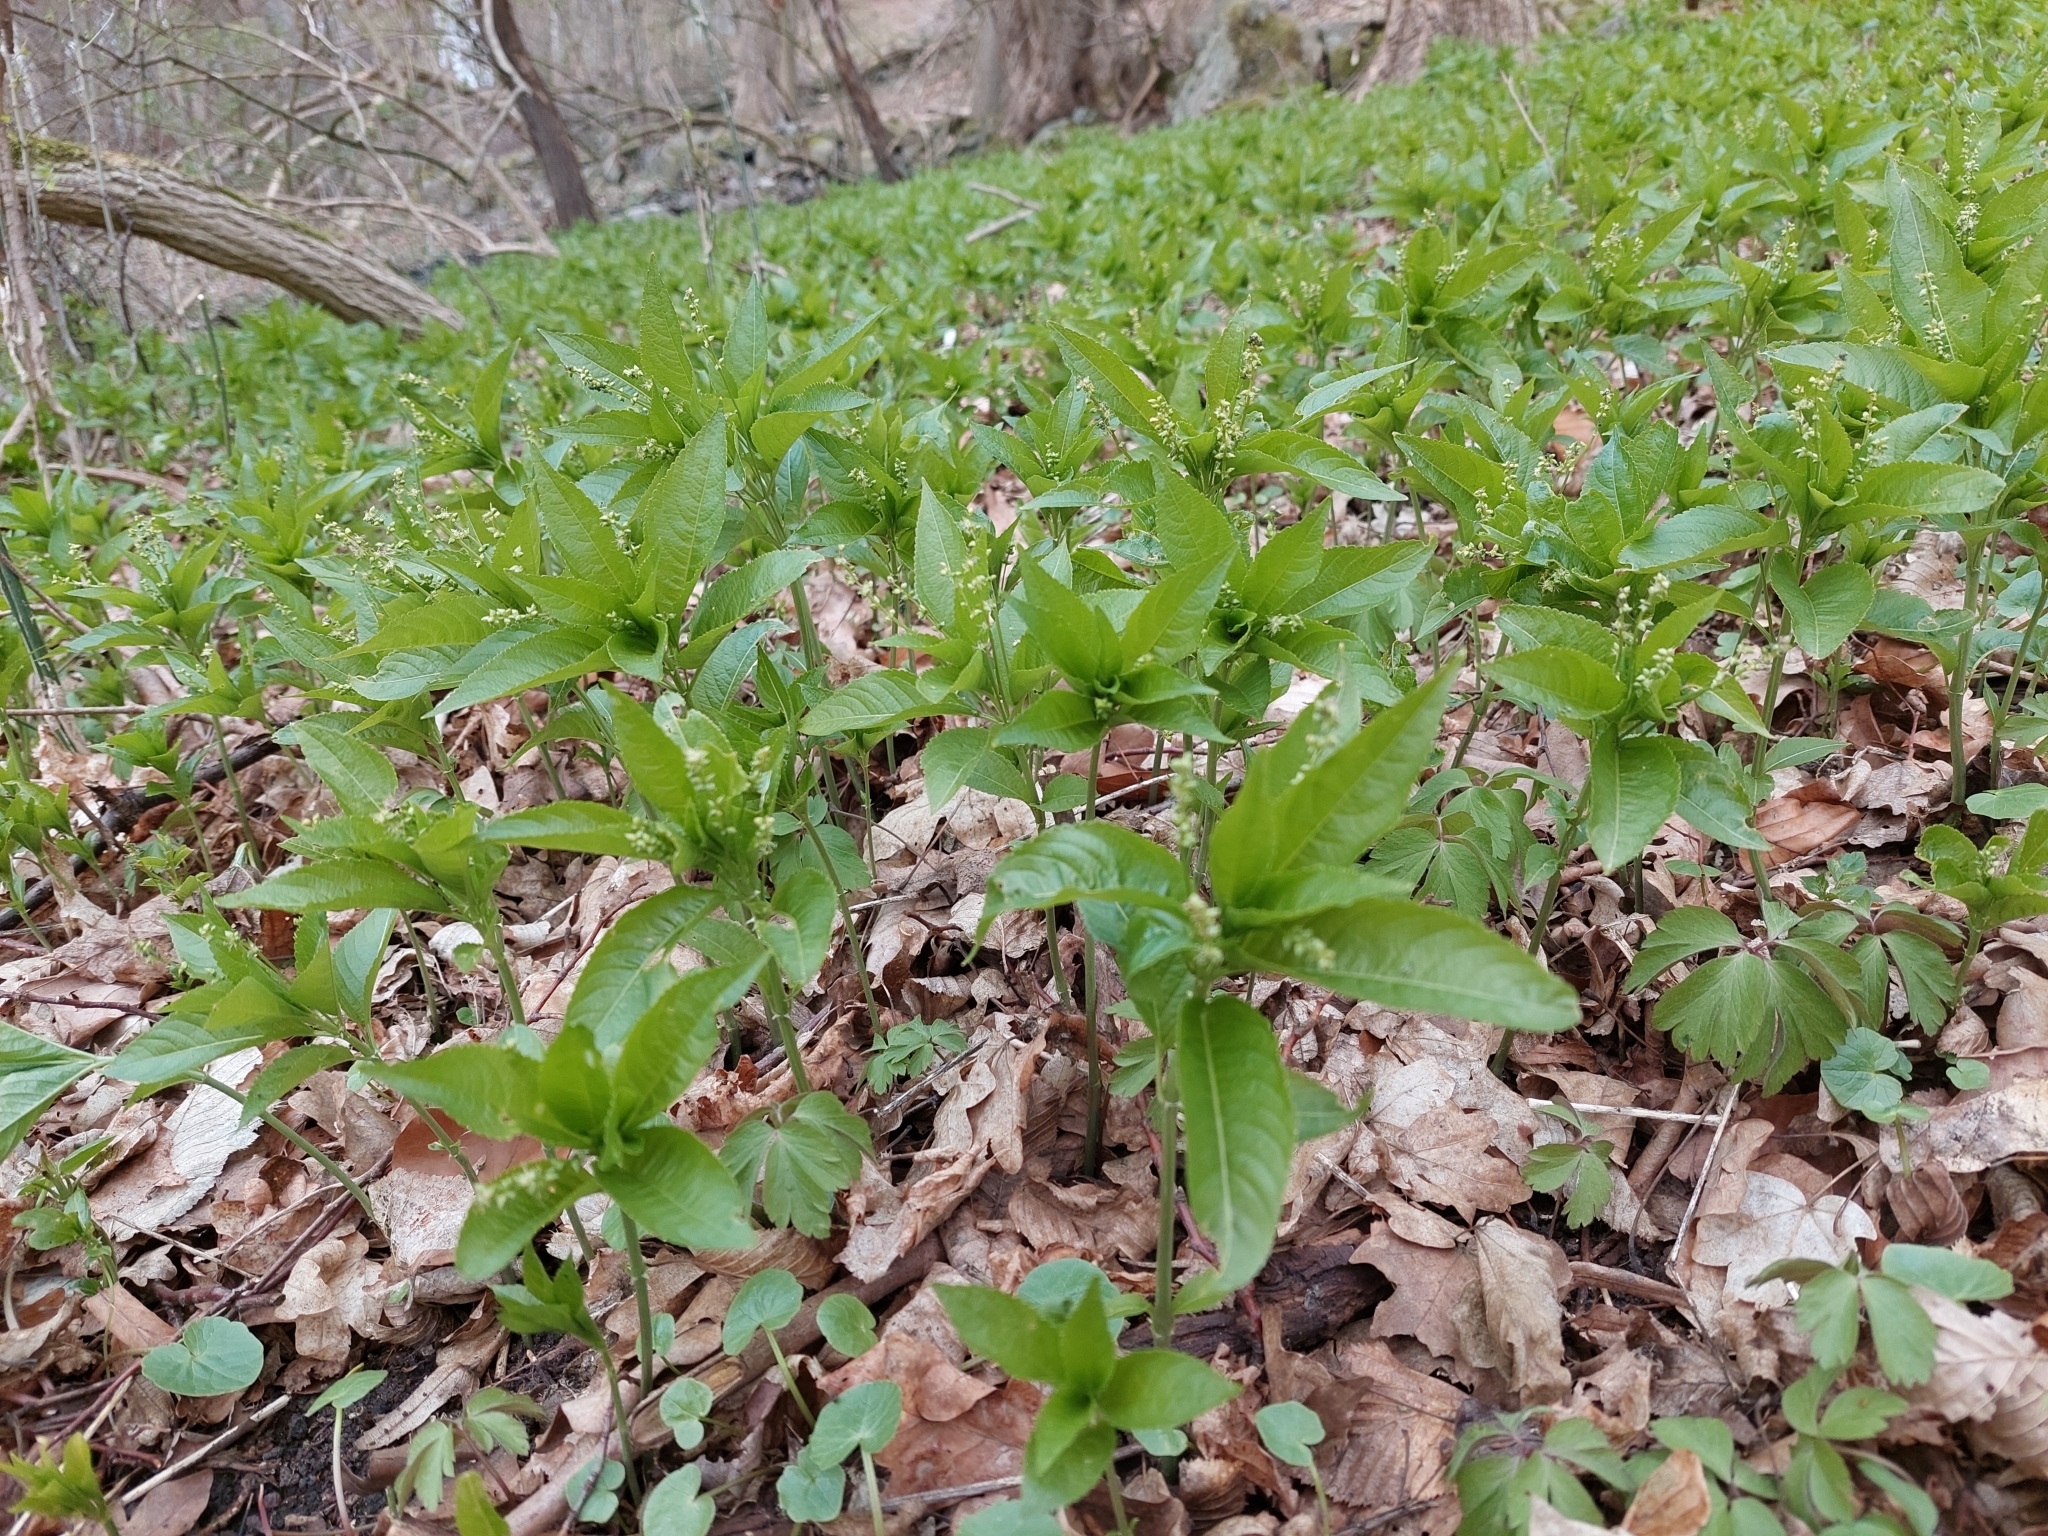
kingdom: Plantae
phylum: Tracheophyta
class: Magnoliopsida
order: Malpighiales
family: Euphorbiaceae
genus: Mercurialis
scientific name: Mercurialis perennis
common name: Dog mercury
